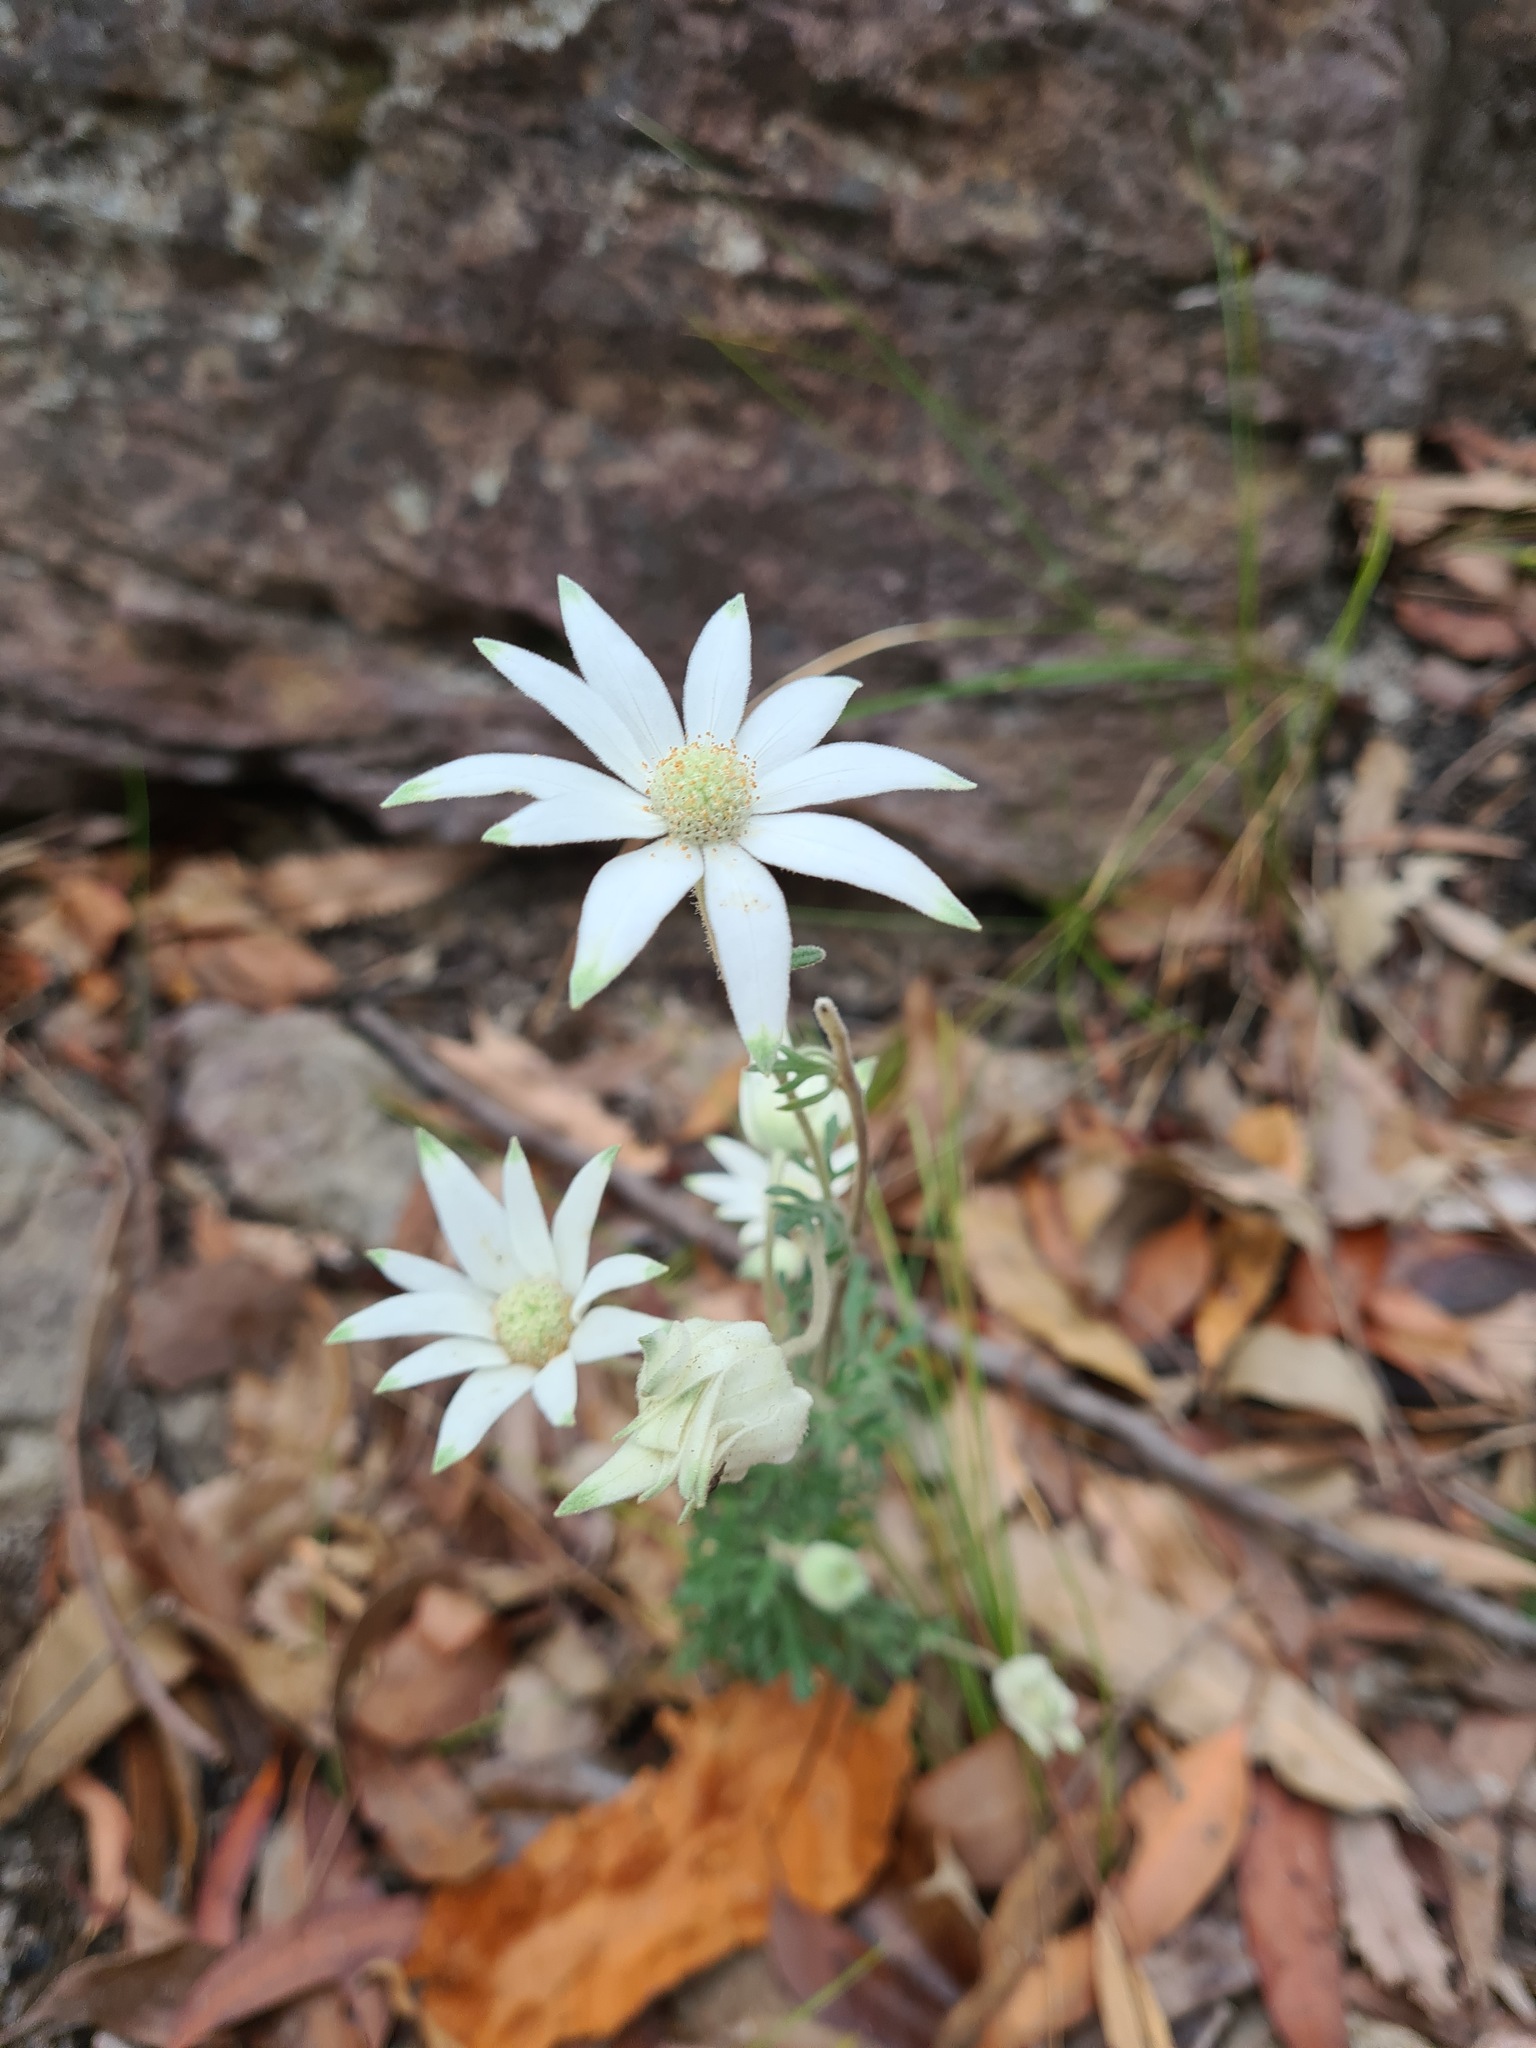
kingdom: Plantae
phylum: Tracheophyta
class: Magnoliopsida
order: Apiales
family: Apiaceae
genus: Actinotus
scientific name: Actinotus helianthi
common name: Flannel-flower
